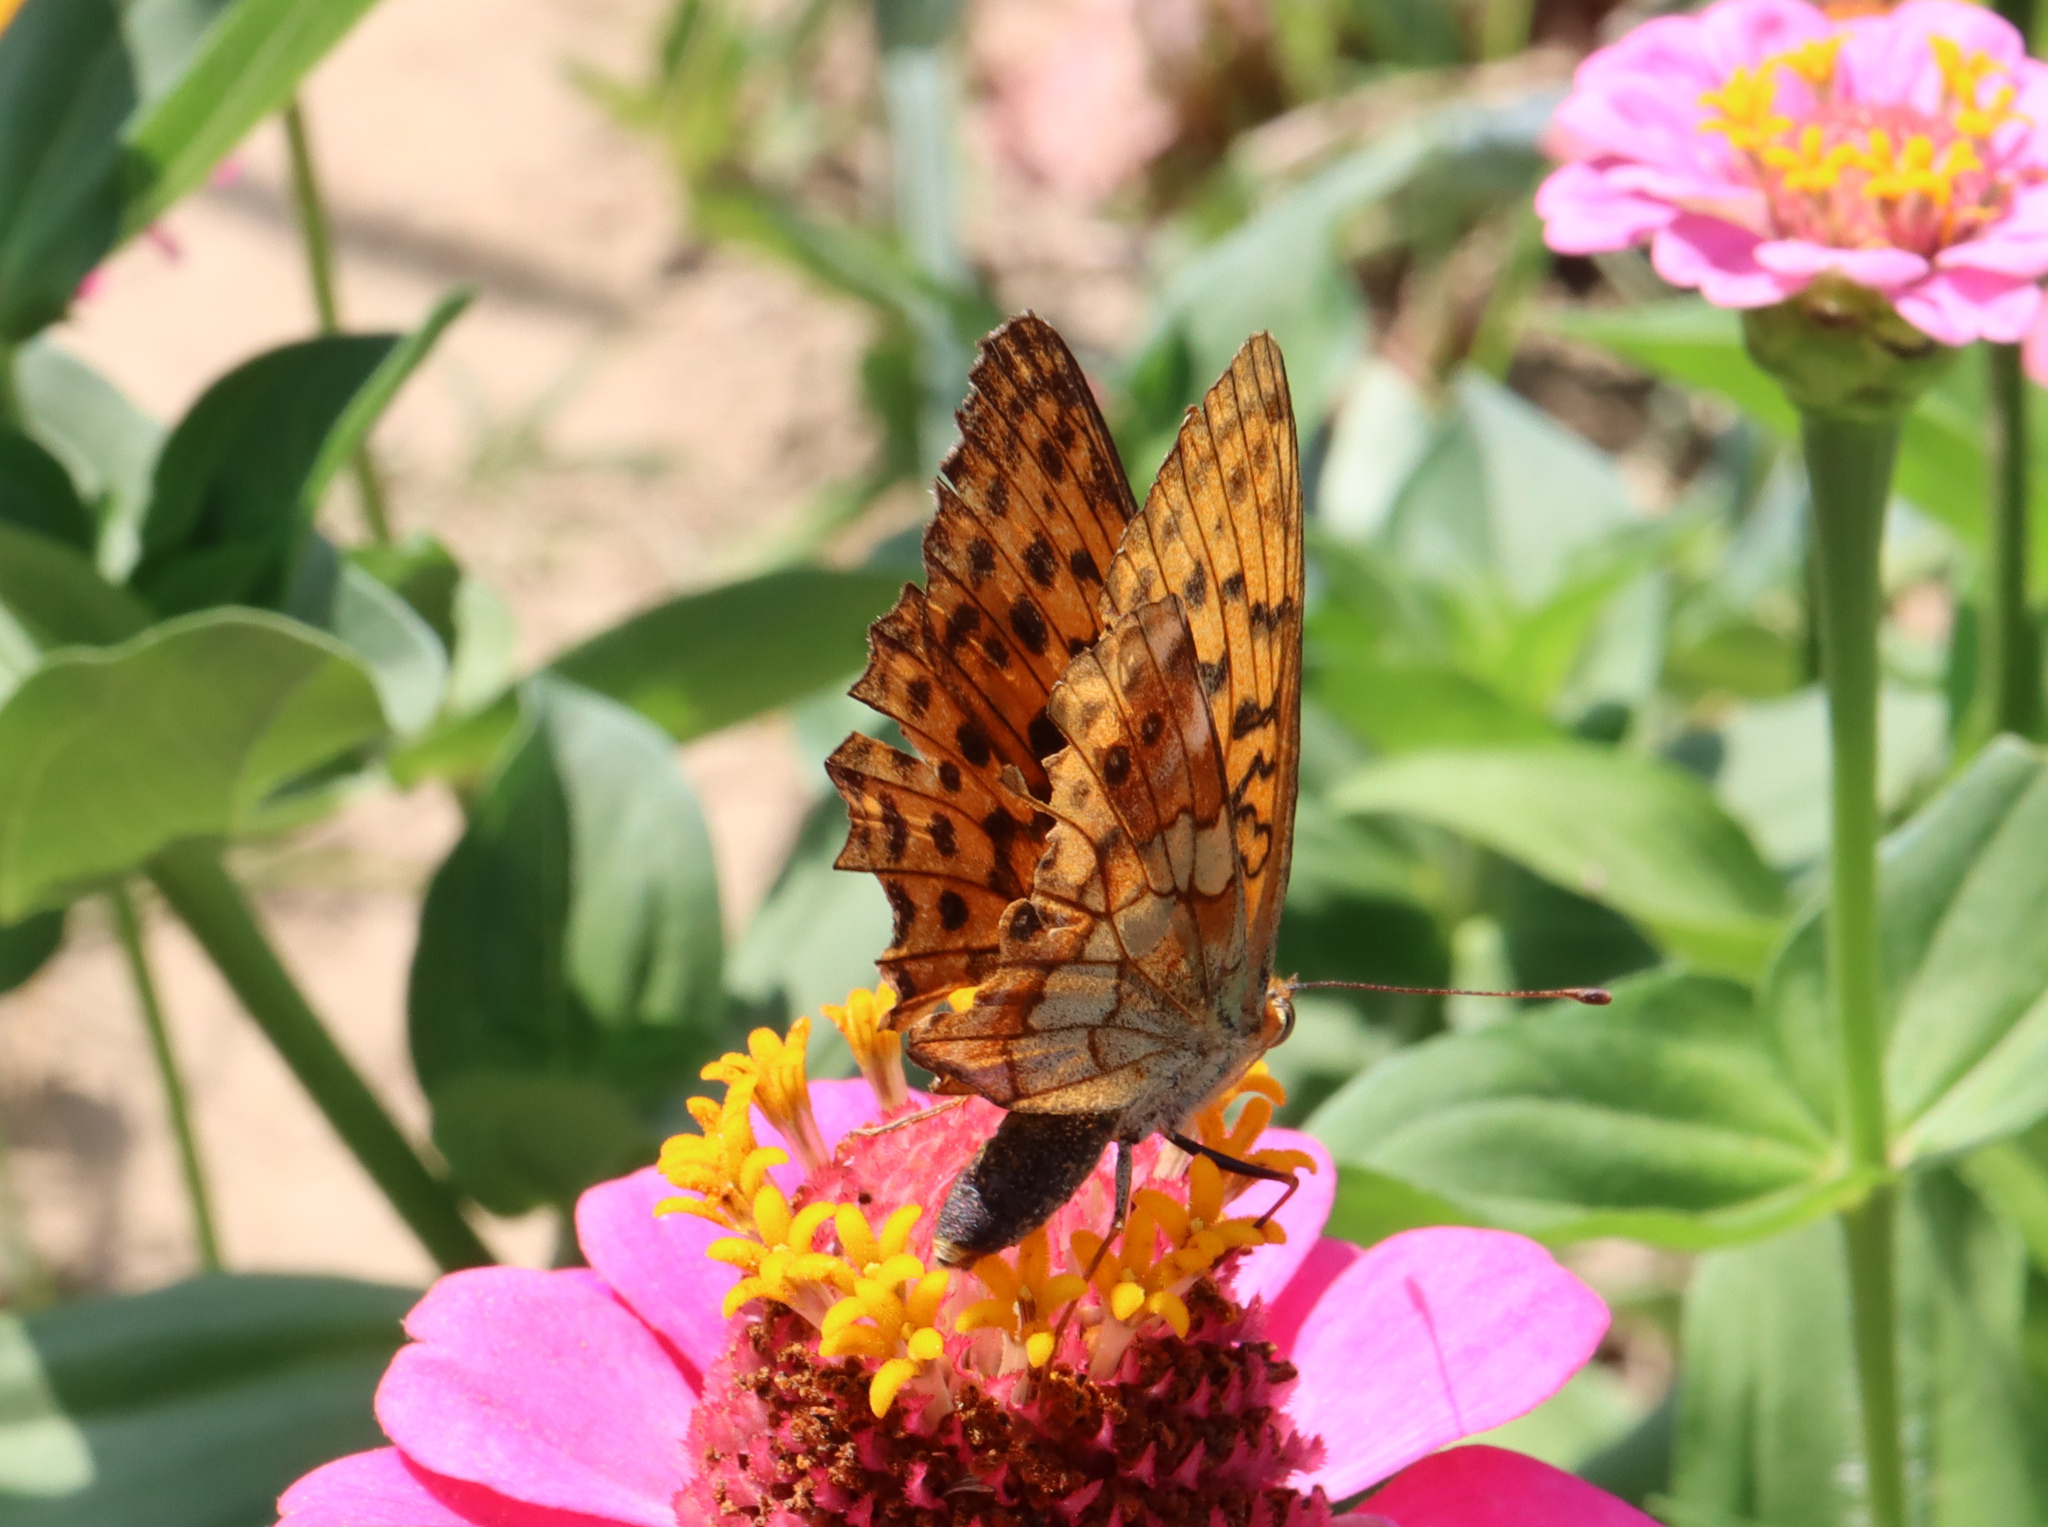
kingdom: Animalia
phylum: Arthropoda
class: Insecta
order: Lepidoptera
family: Nymphalidae
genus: Brenthis
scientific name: Brenthis daphne
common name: Marbled fritillary
